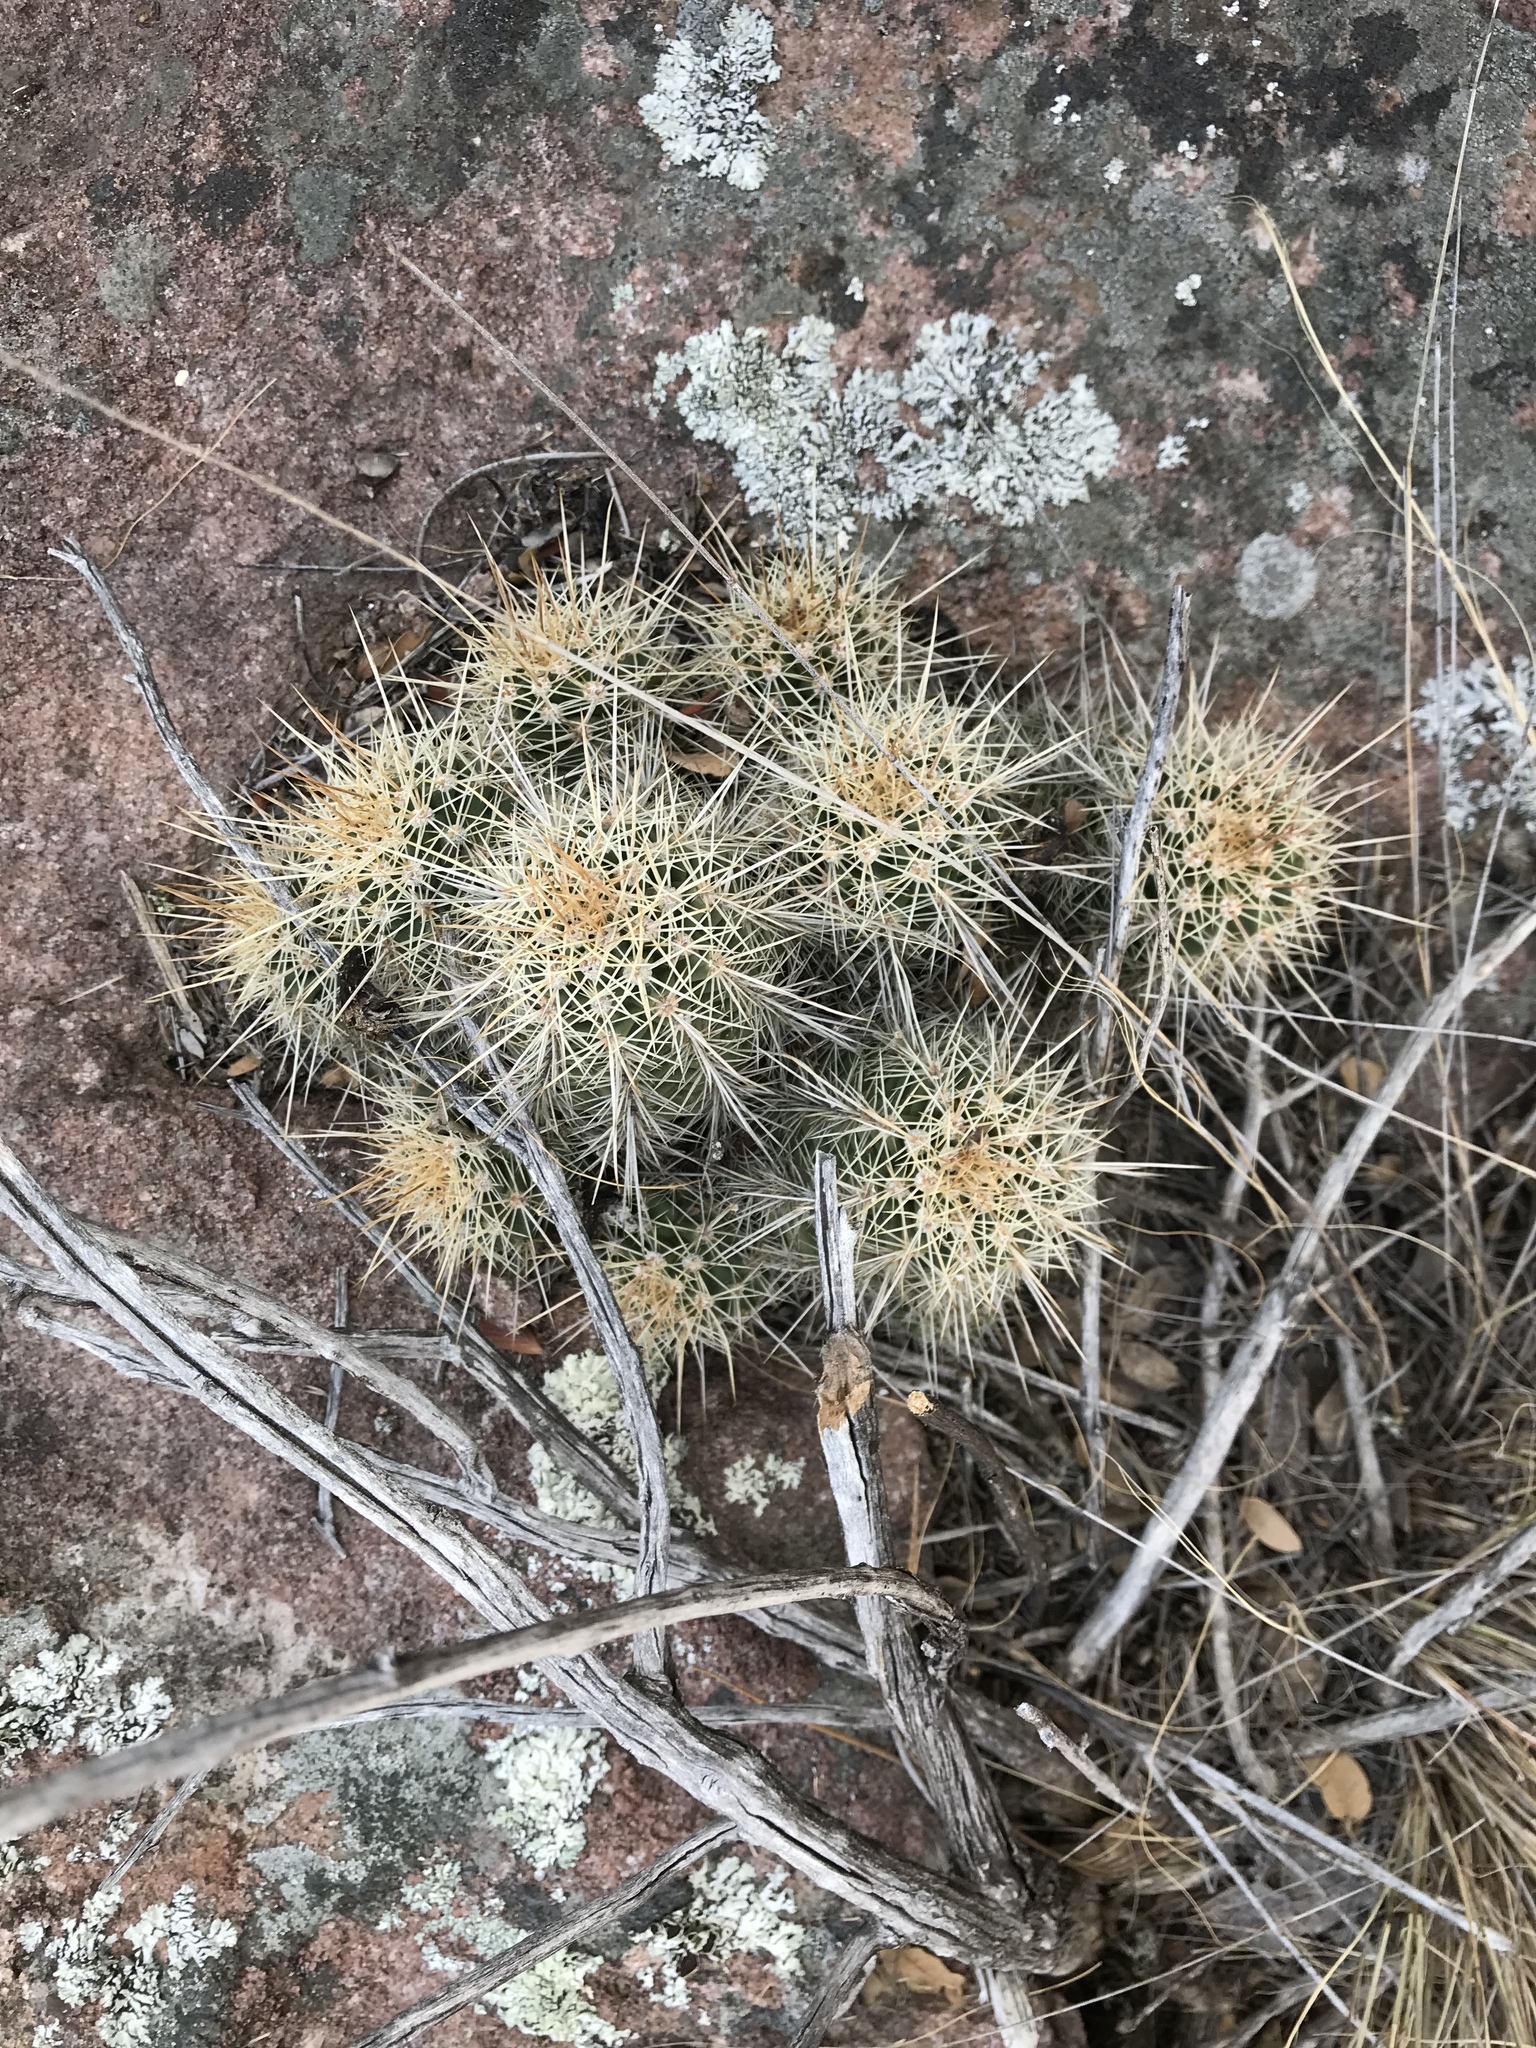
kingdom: Plantae
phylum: Tracheophyta
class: Magnoliopsida
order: Caryophyllales
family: Cactaceae
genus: Echinocereus
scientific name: Echinocereus coccineus
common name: Scarlet hedgehog cactus
